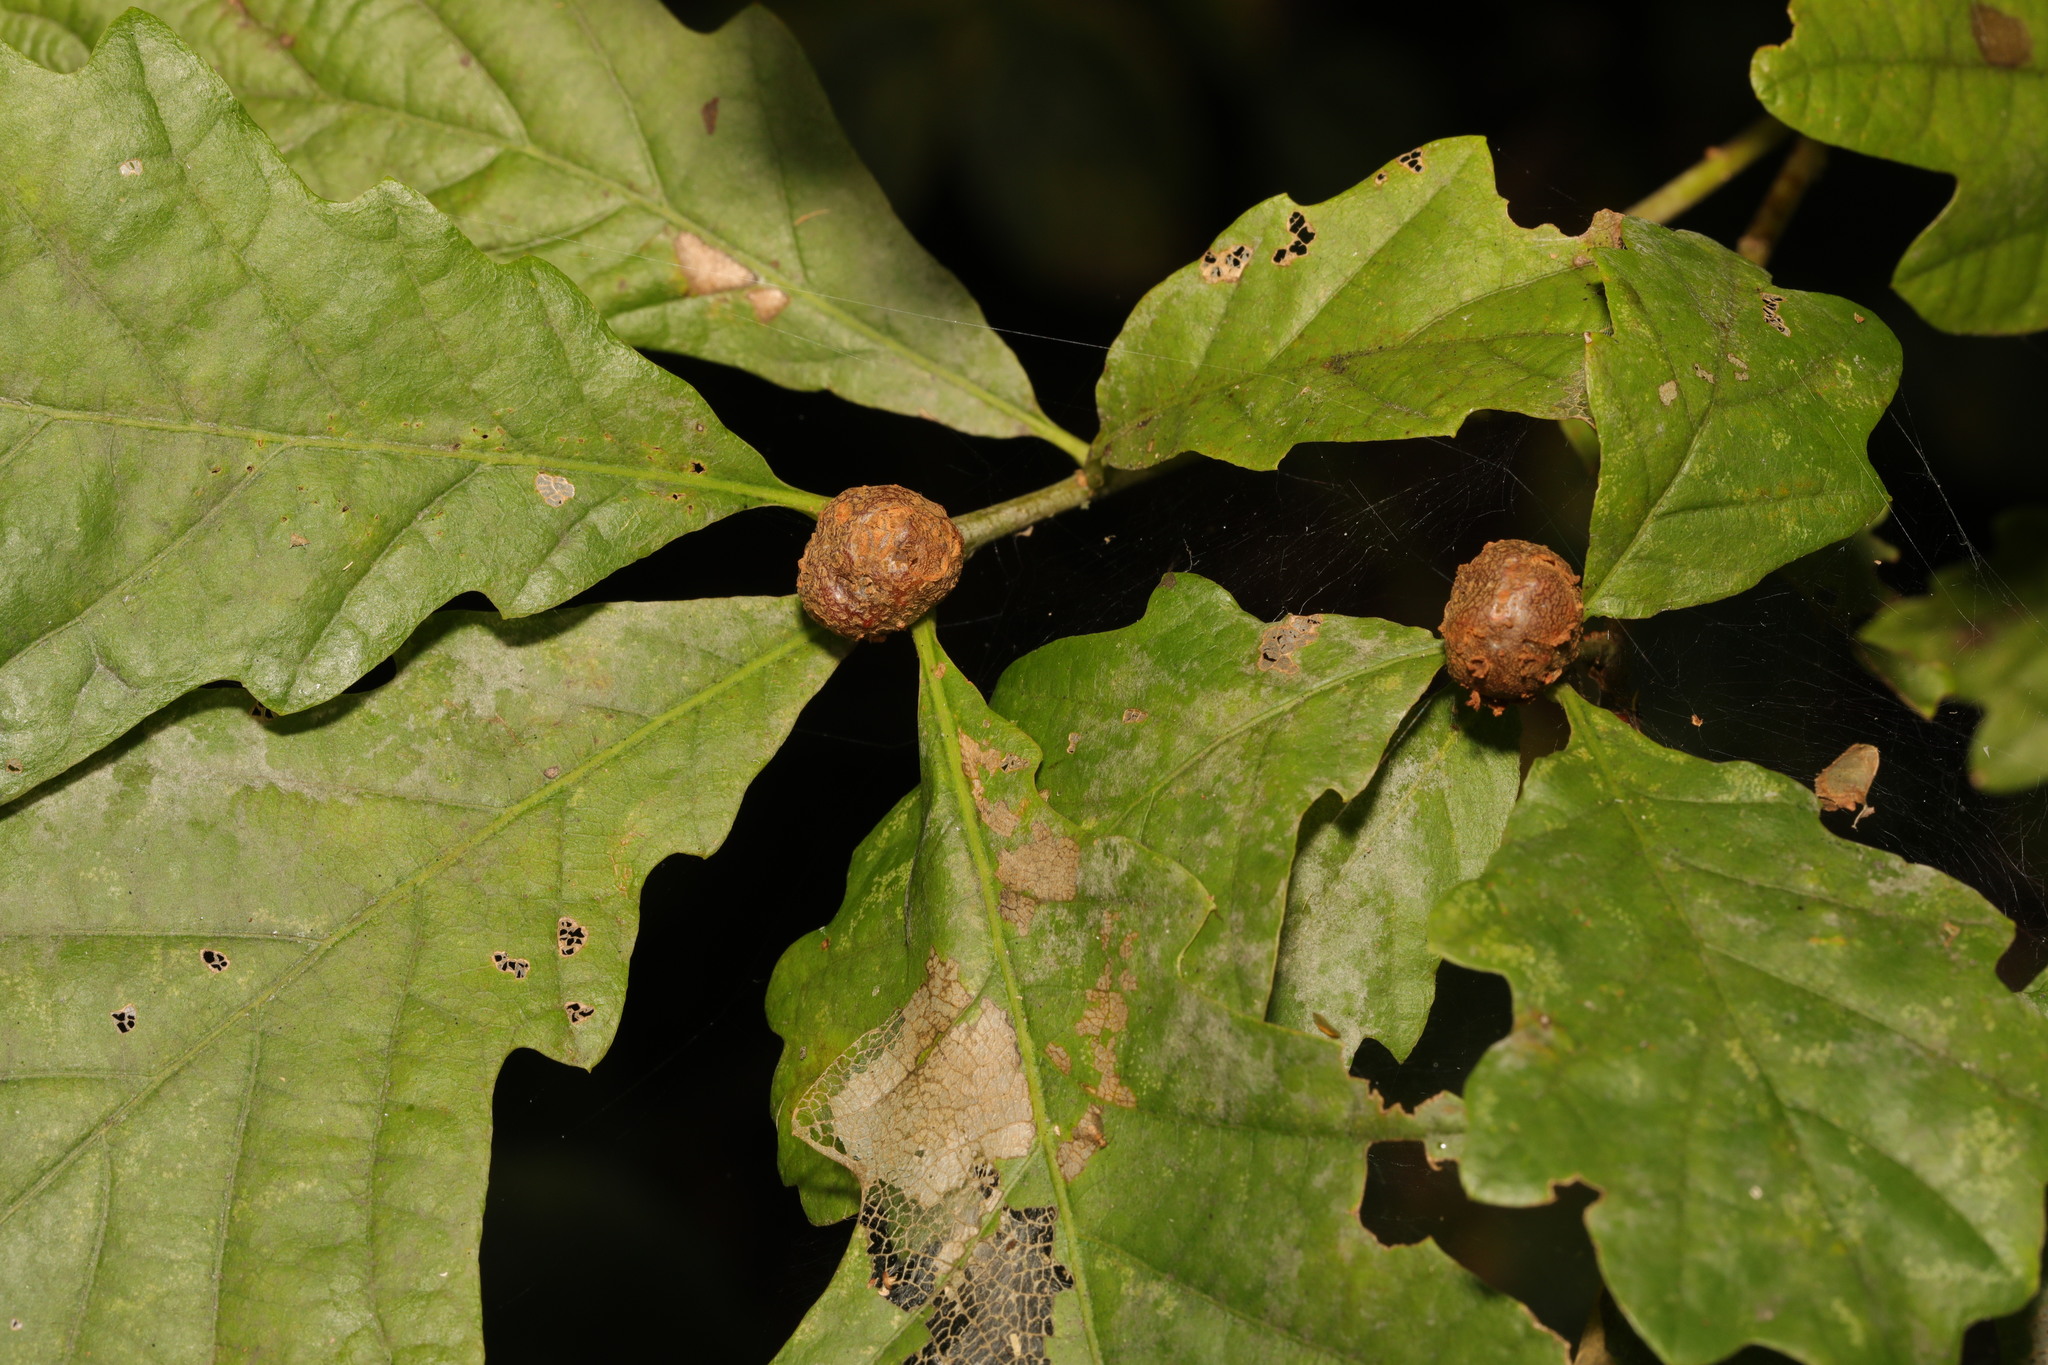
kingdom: Animalia
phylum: Arthropoda
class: Insecta
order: Hymenoptera
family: Cynipidae
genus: Andricus
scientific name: Andricus lignicolus
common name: Cola-nut gall
